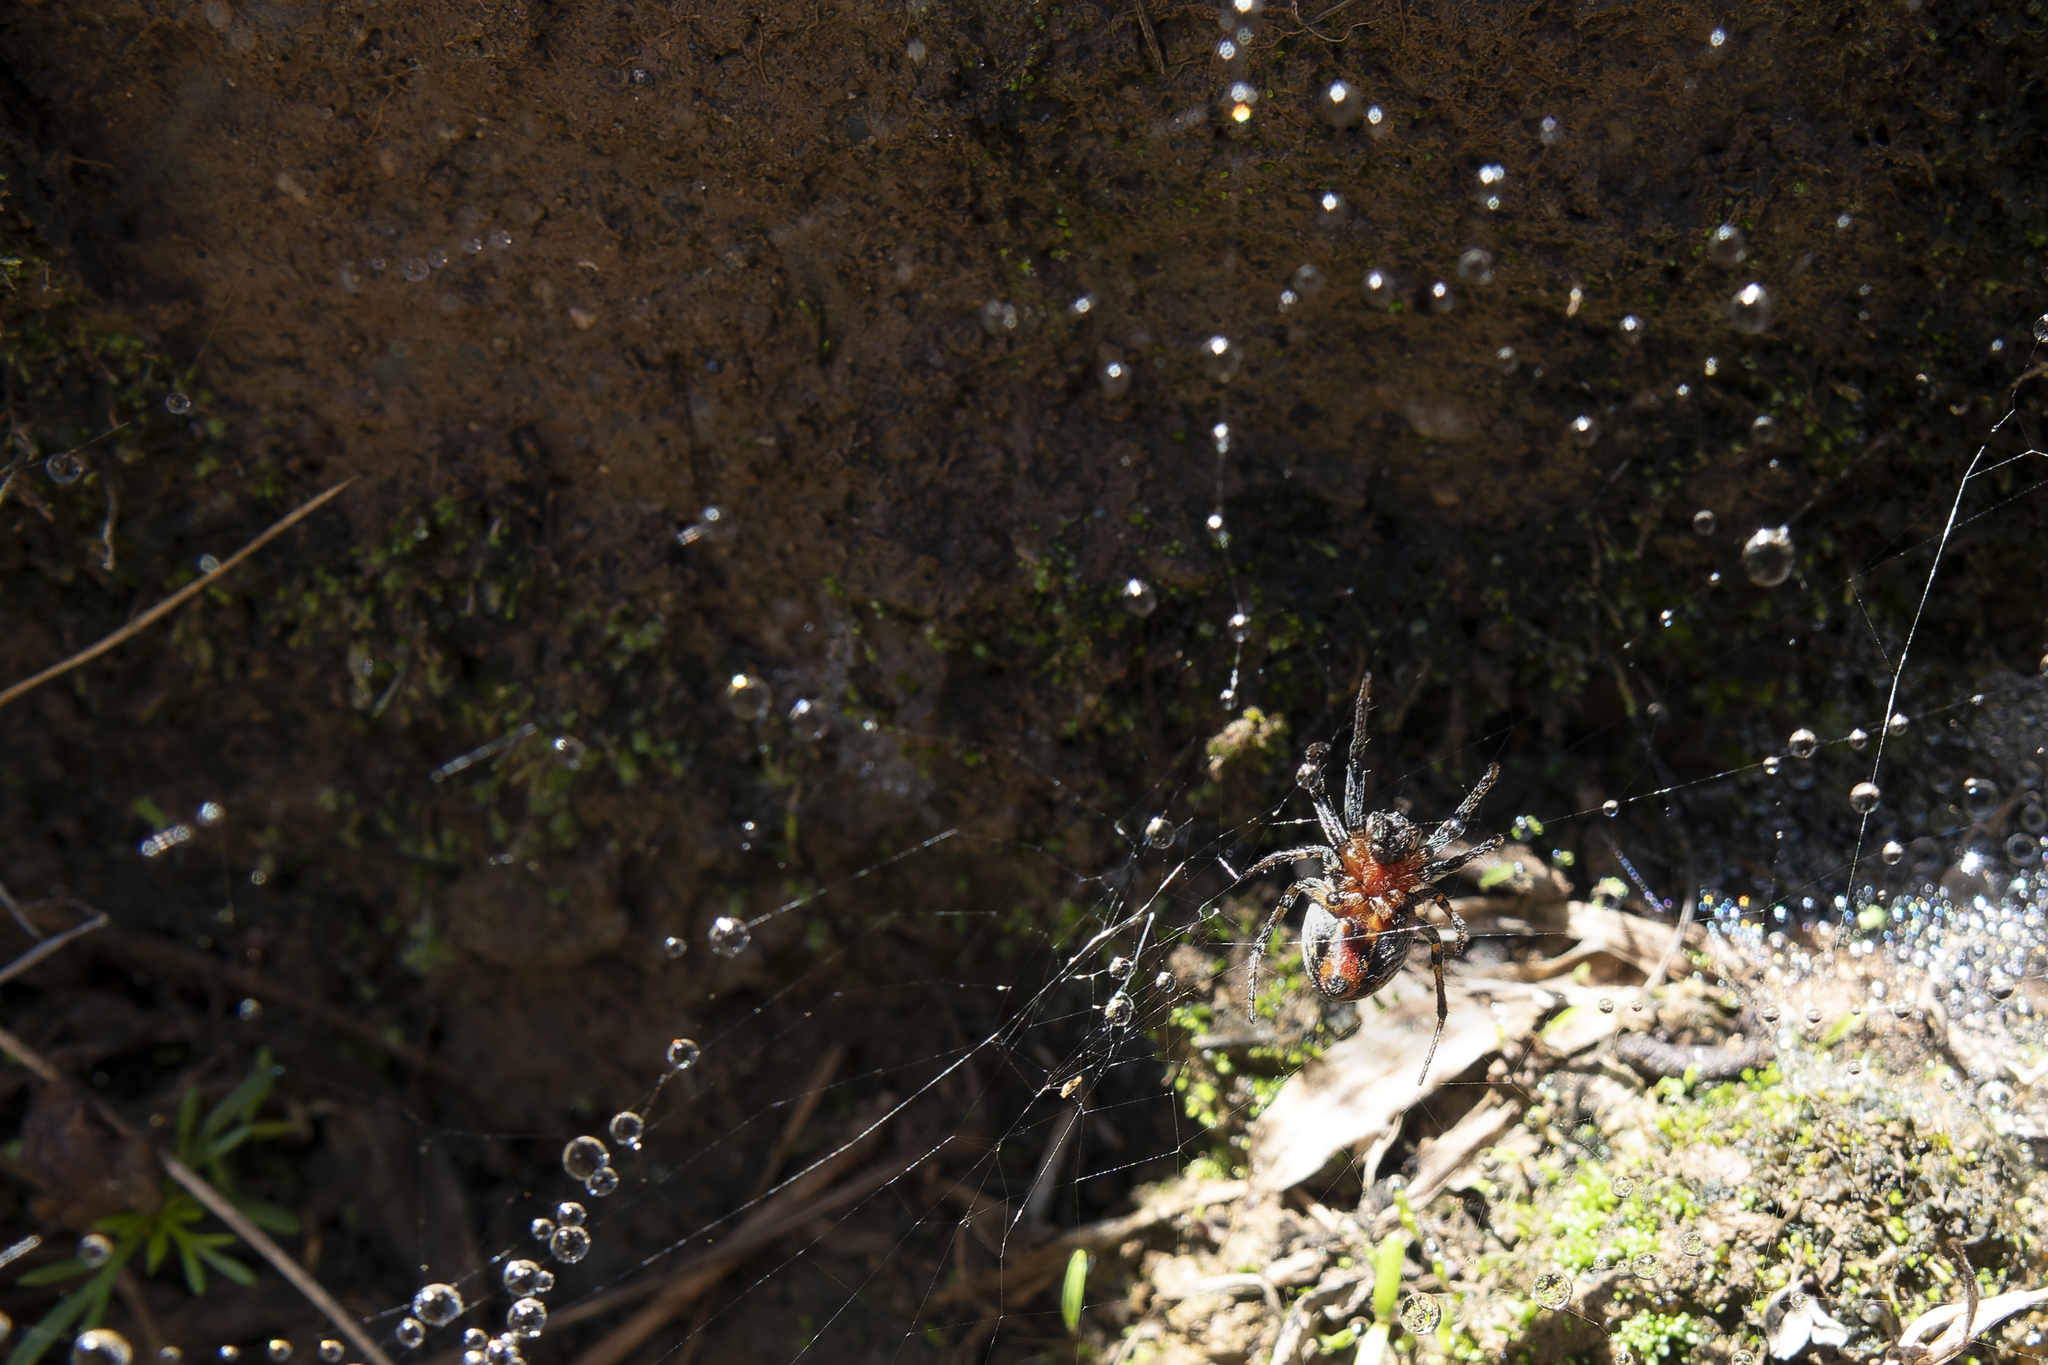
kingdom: Animalia
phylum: Arthropoda
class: Arachnida
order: Araneae
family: Araneidae
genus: Alpaida
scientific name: Alpaida versicolor
